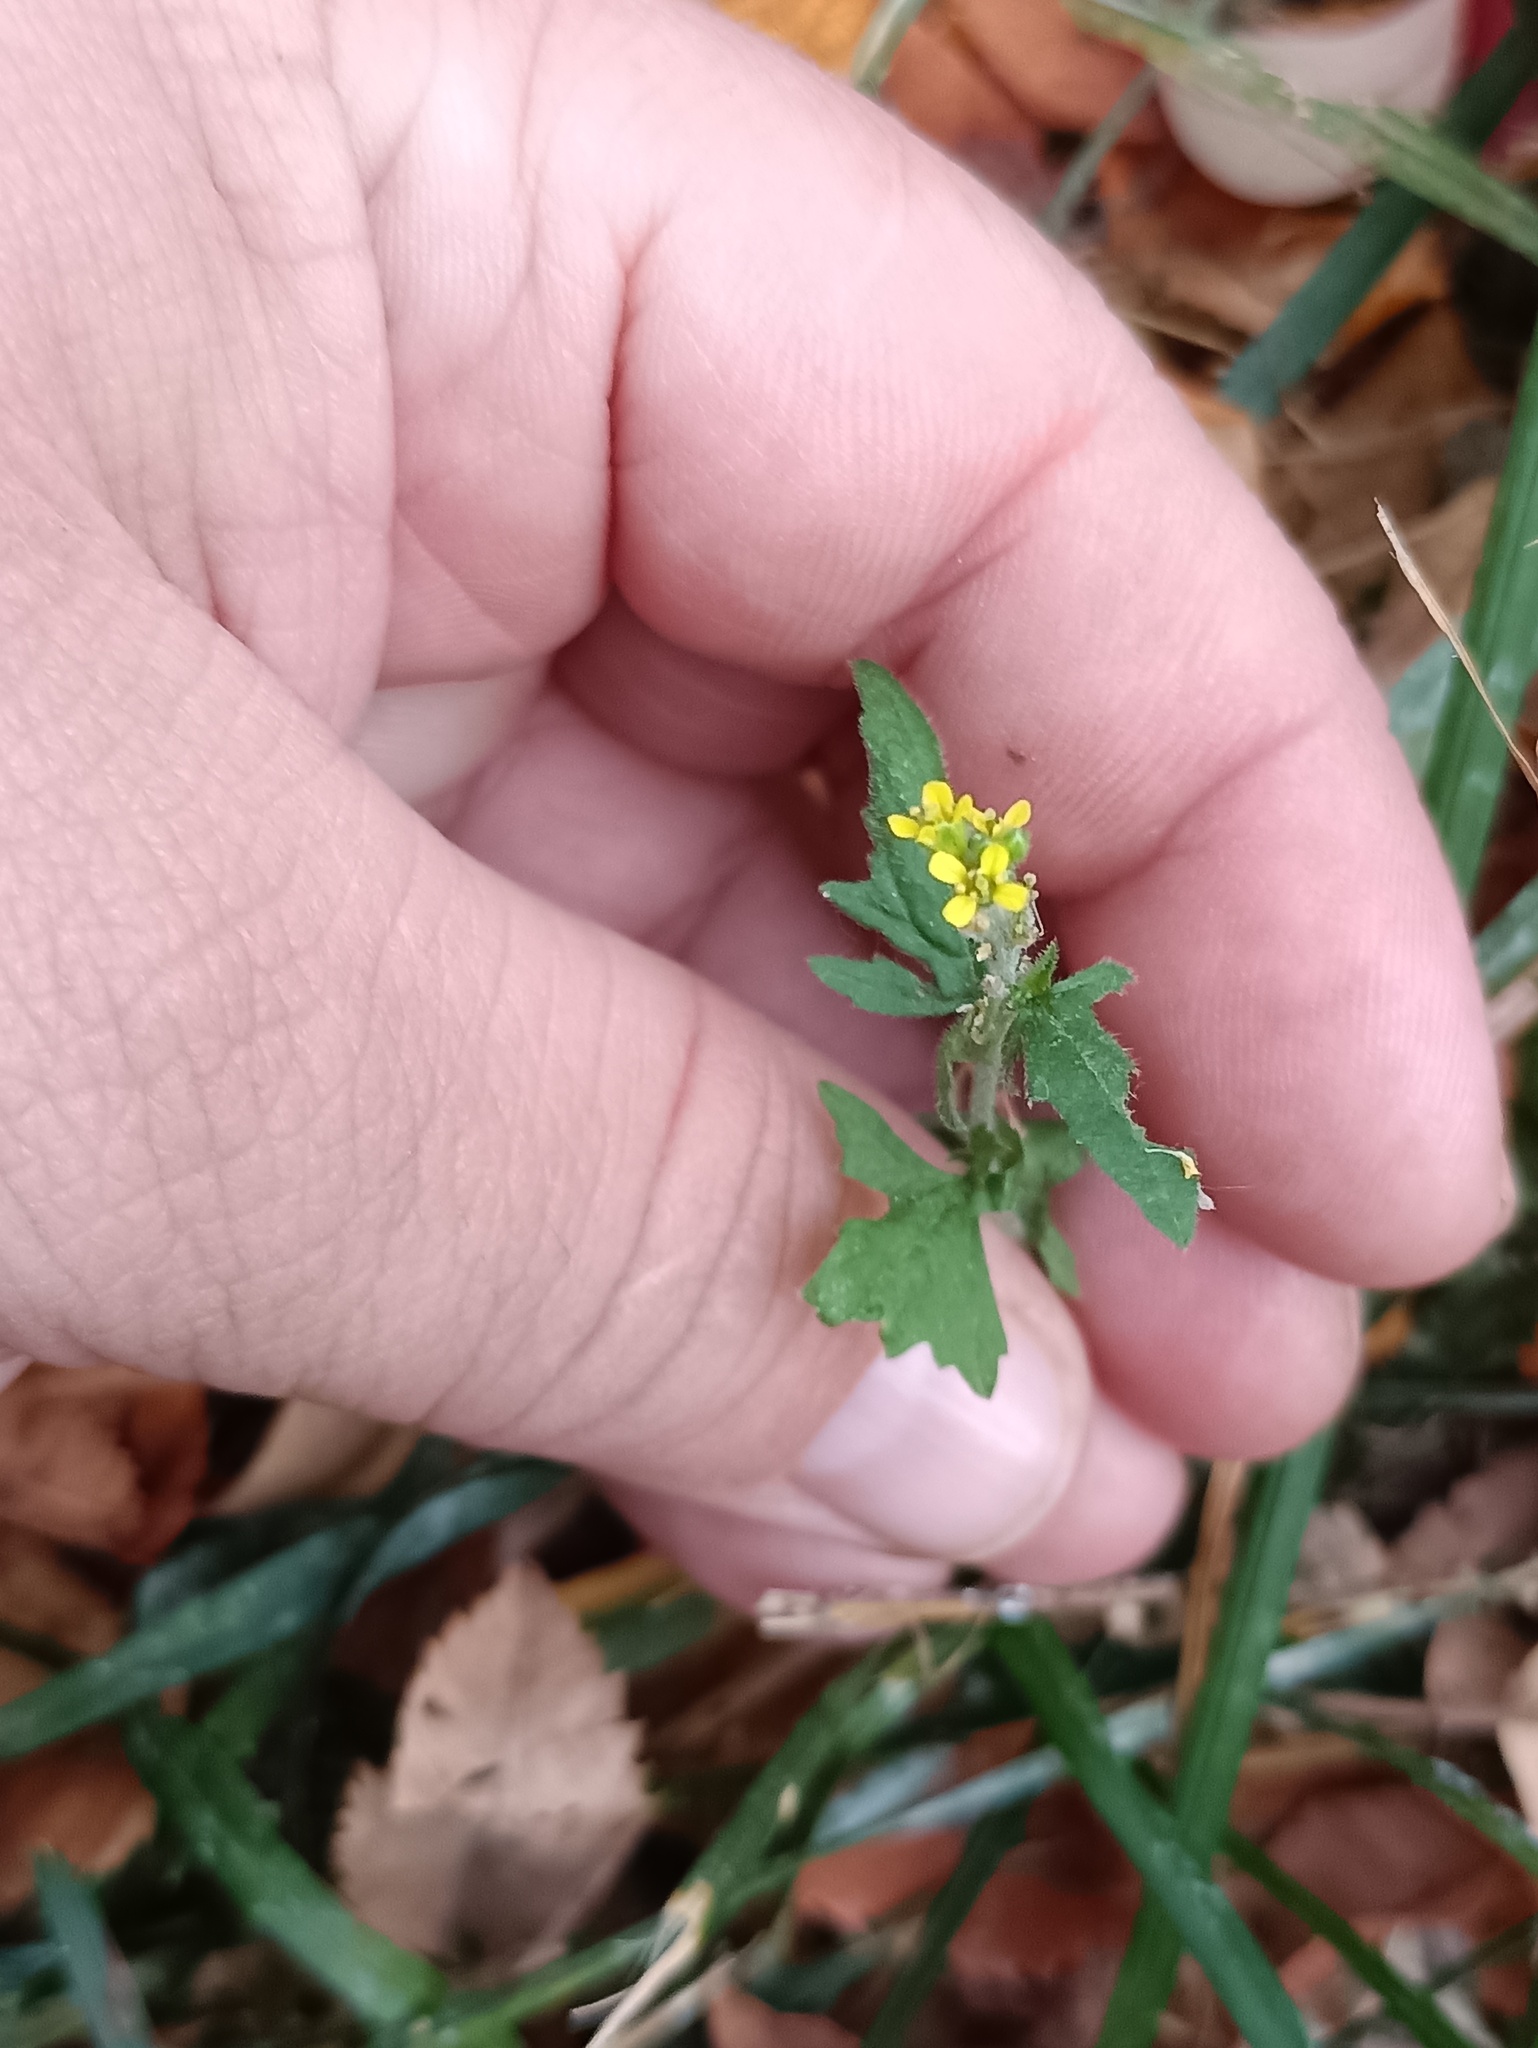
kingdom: Plantae
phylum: Tracheophyta
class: Magnoliopsida
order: Brassicales
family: Brassicaceae
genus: Sisymbrium
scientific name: Sisymbrium officinale
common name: Hedge mustard
